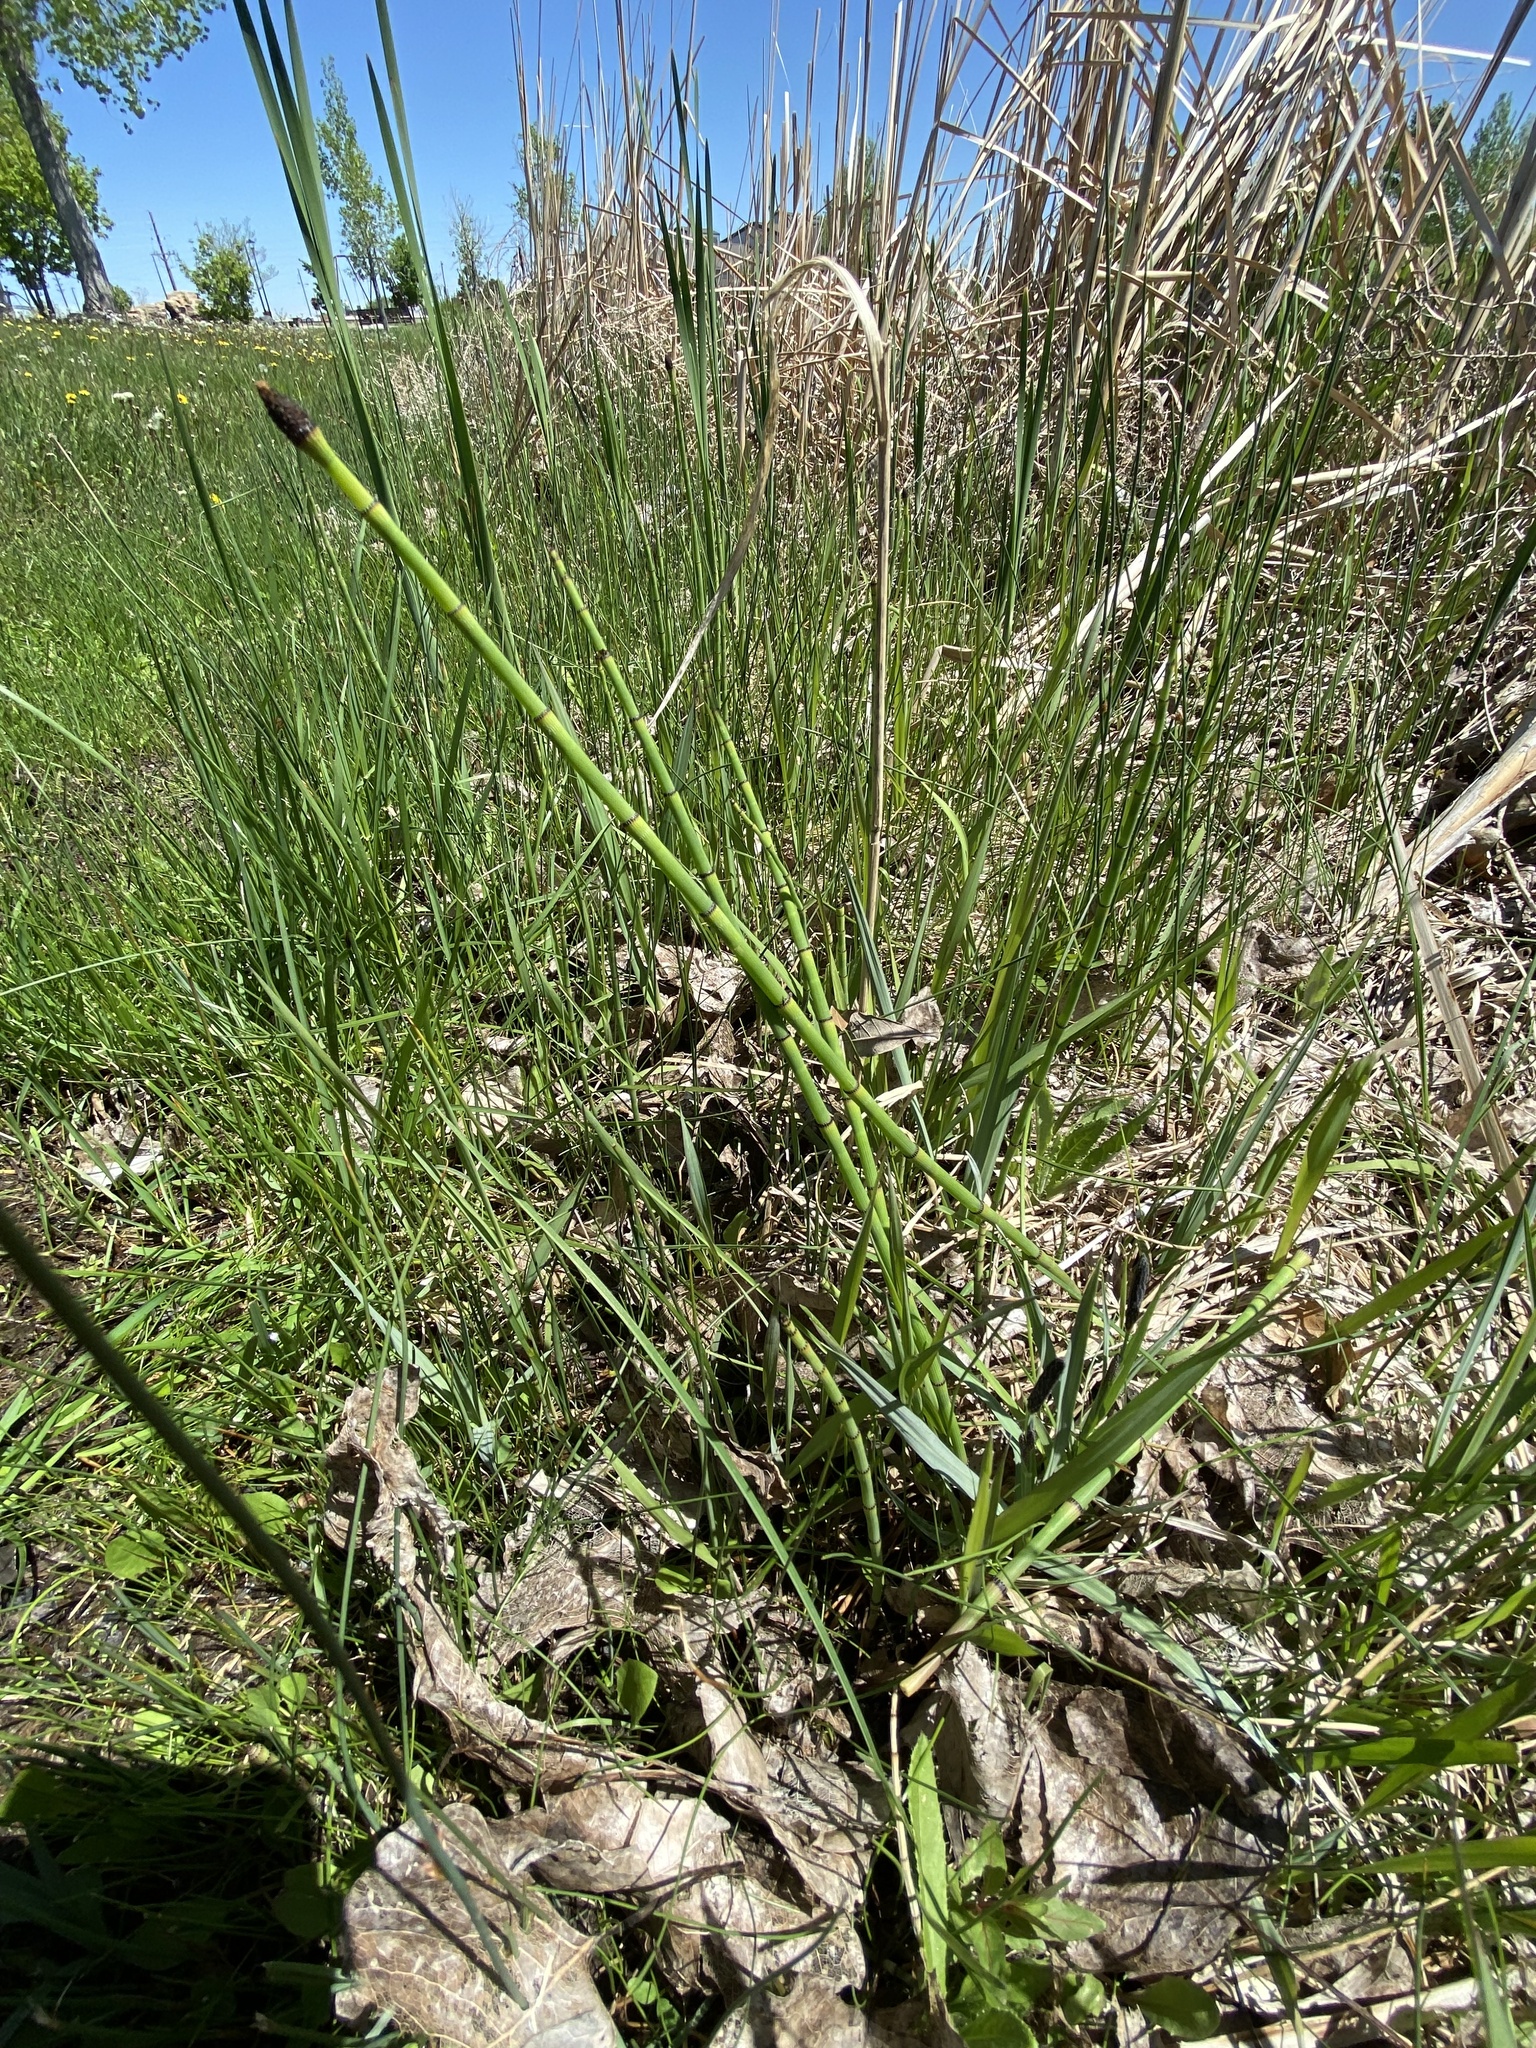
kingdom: Plantae
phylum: Tracheophyta
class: Polypodiopsida
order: Equisetales
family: Equisetaceae
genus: Equisetum
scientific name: Equisetum laevigatum
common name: Smooth scouring-rush
